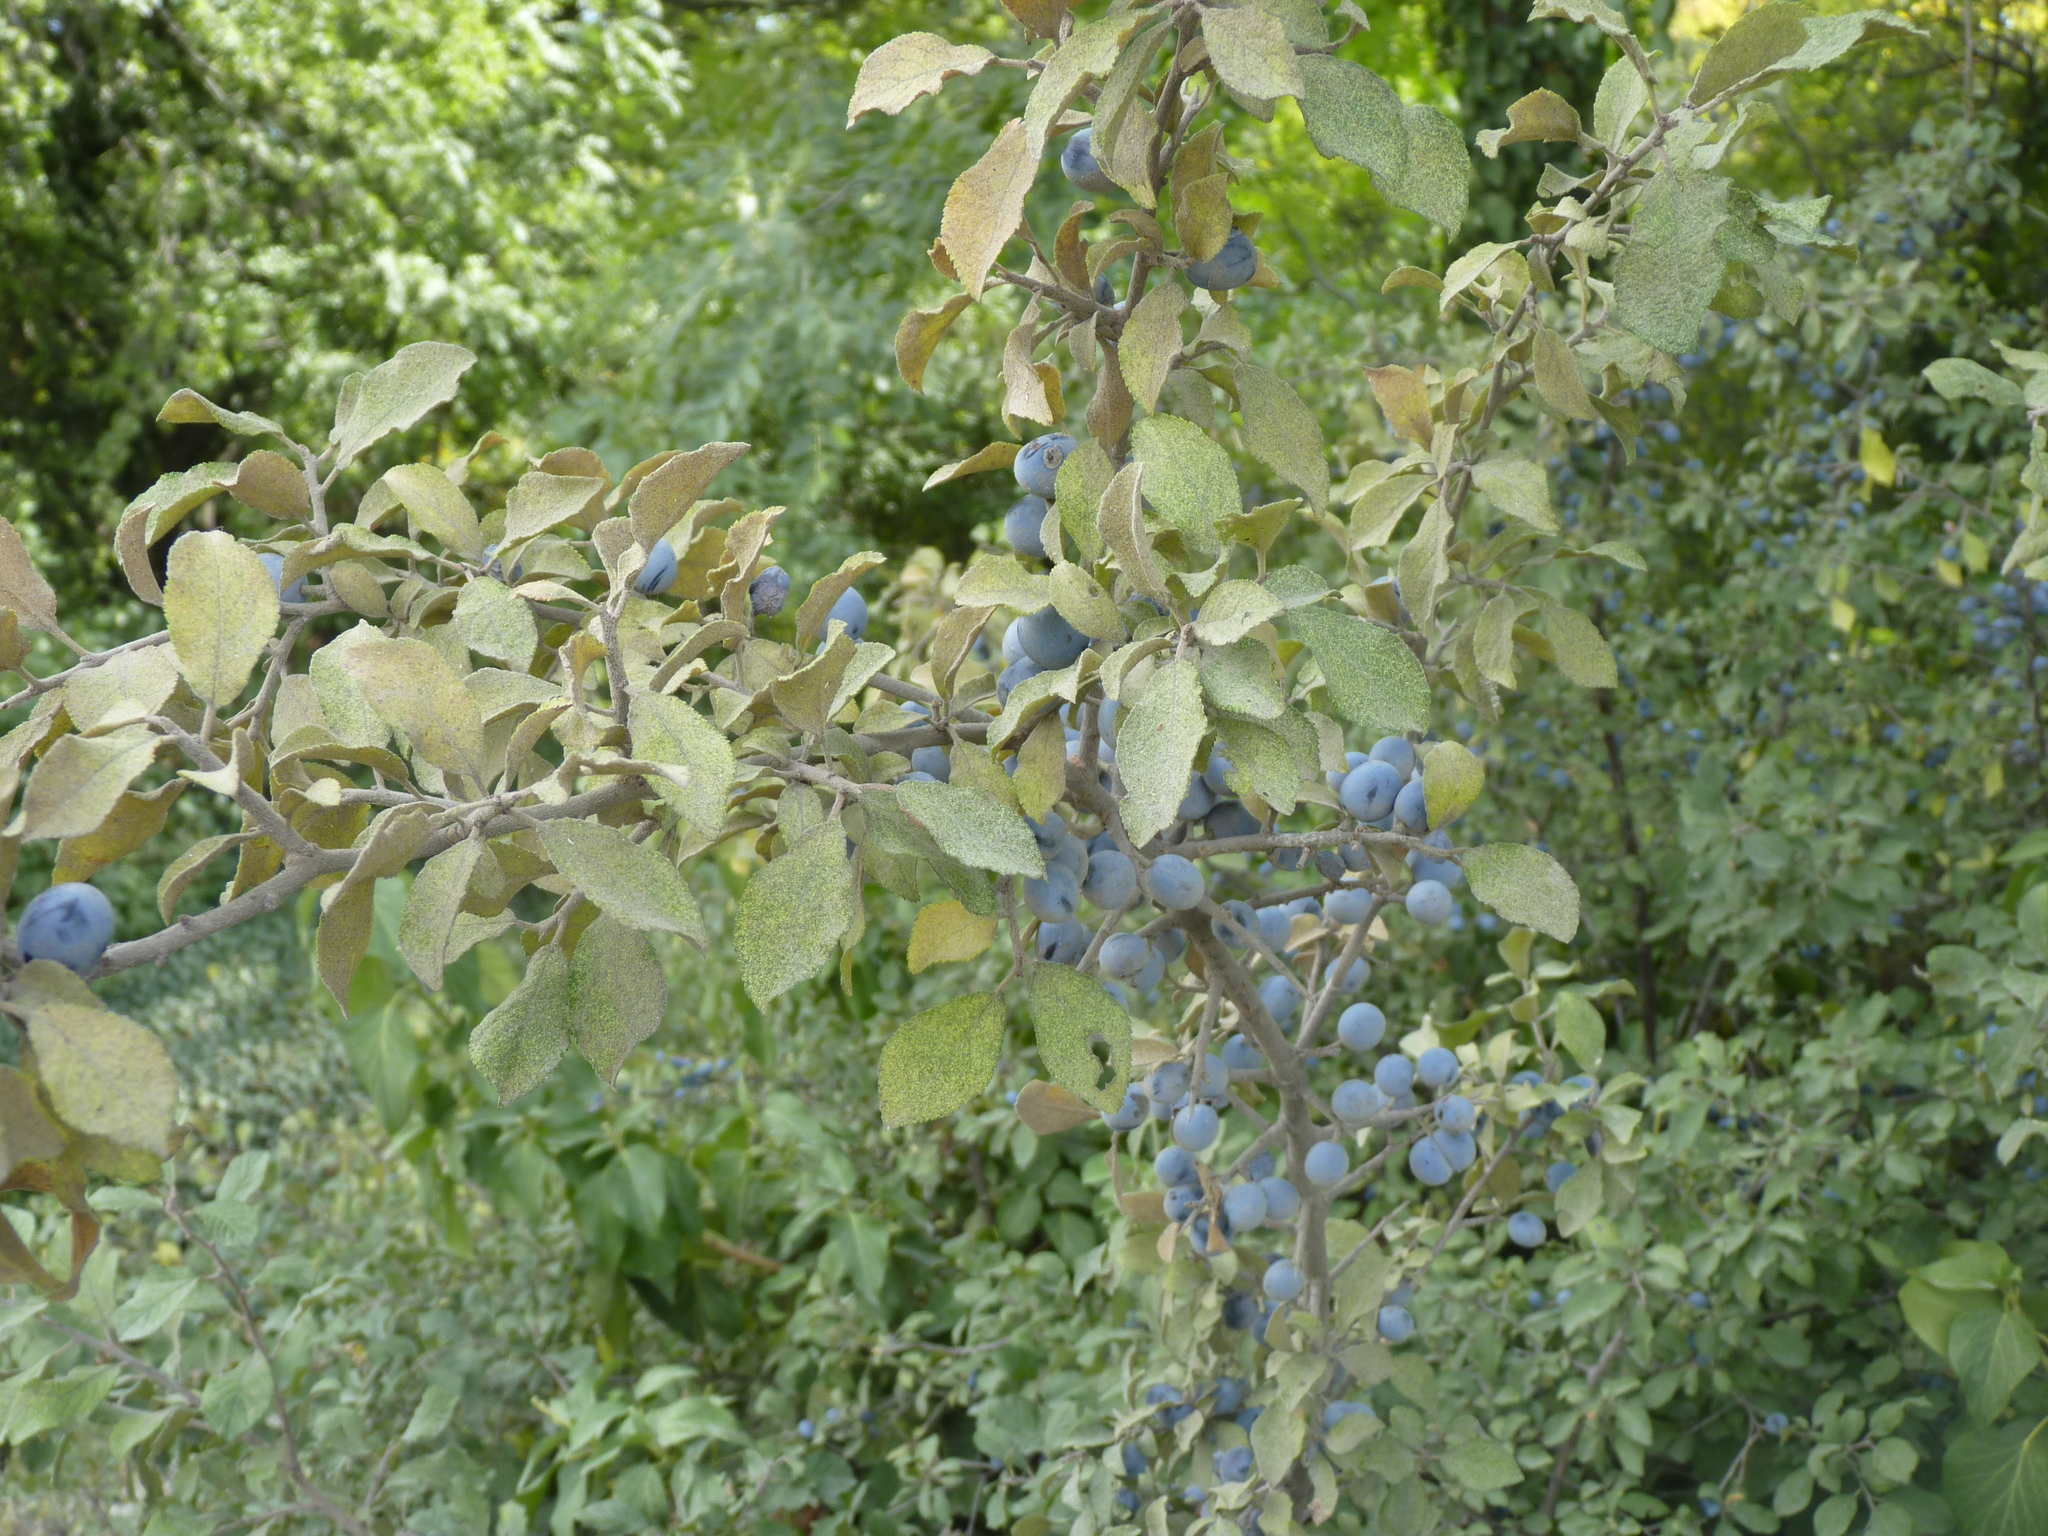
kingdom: Plantae
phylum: Tracheophyta
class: Magnoliopsida
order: Rosales
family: Rosaceae
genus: Prunus
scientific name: Prunus spinosa
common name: Blackthorn
